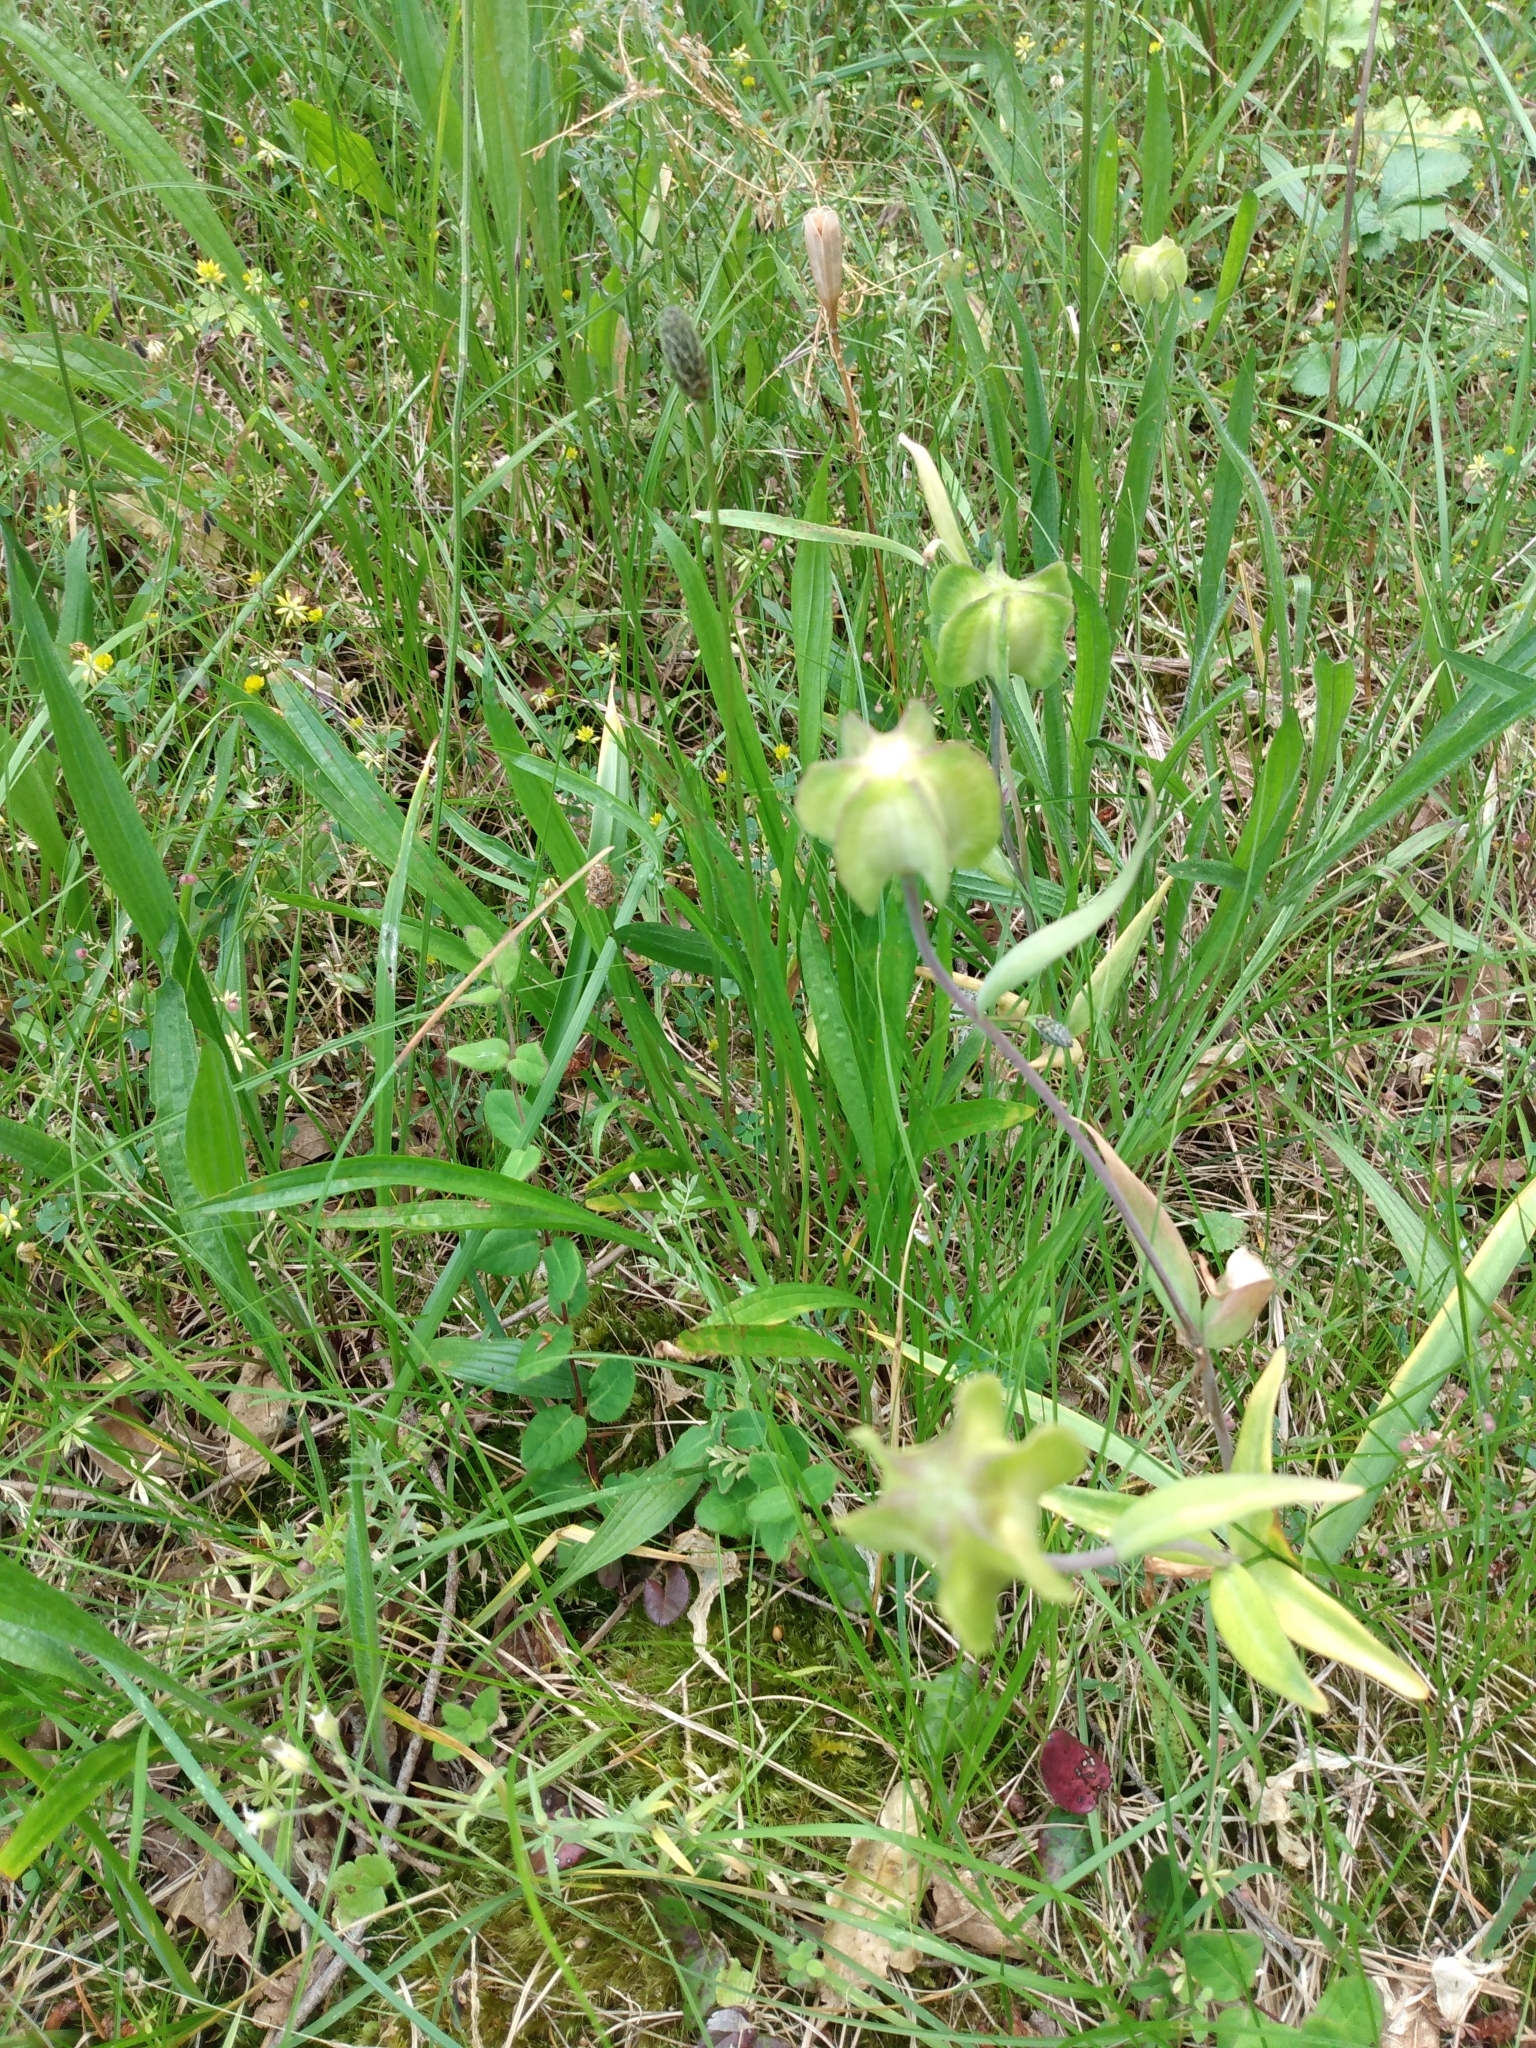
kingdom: Plantae
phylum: Tracheophyta
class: Liliopsida
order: Liliales
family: Liliaceae
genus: Fritillaria
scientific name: Fritillaria affinis
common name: Ojai fritillary
